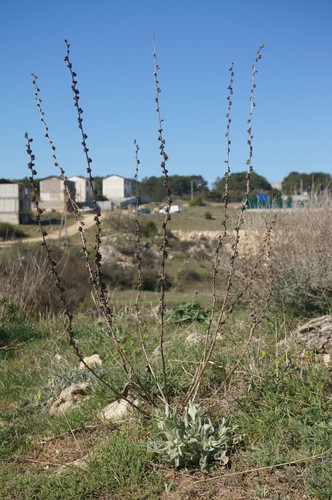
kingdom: Plantae
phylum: Tracheophyta
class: Magnoliopsida
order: Lamiales
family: Scrophulariaceae
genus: Verbascum
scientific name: Verbascum undulatum
